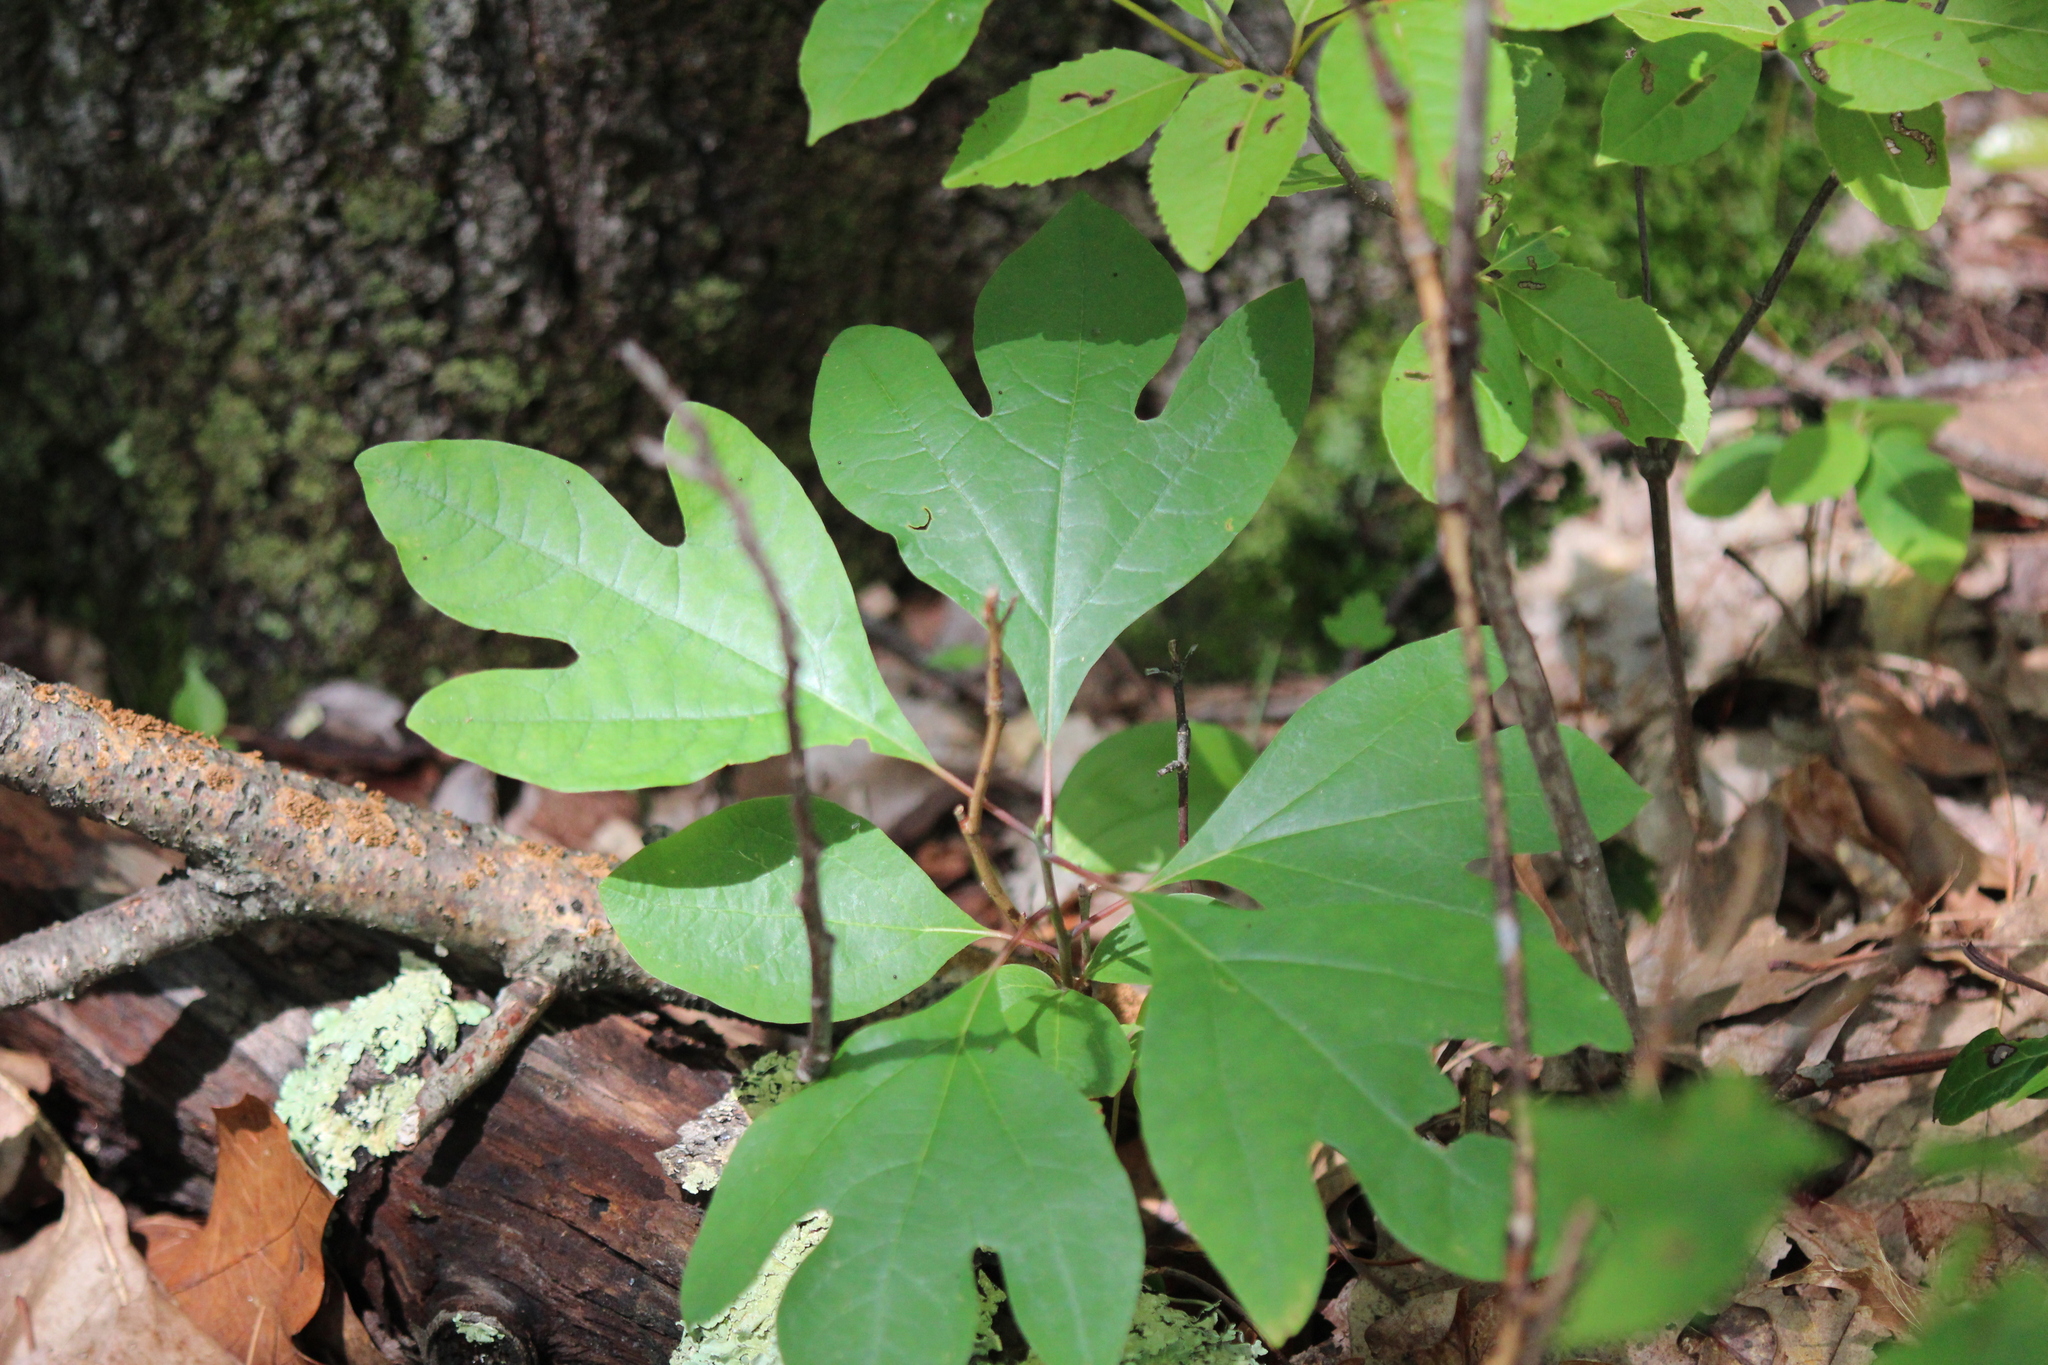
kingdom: Plantae
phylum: Tracheophyta
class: Magnoliopsida
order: Laurales
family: Lauraceae
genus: Sassafras
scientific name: Sassafras albidum
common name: Sassafras
